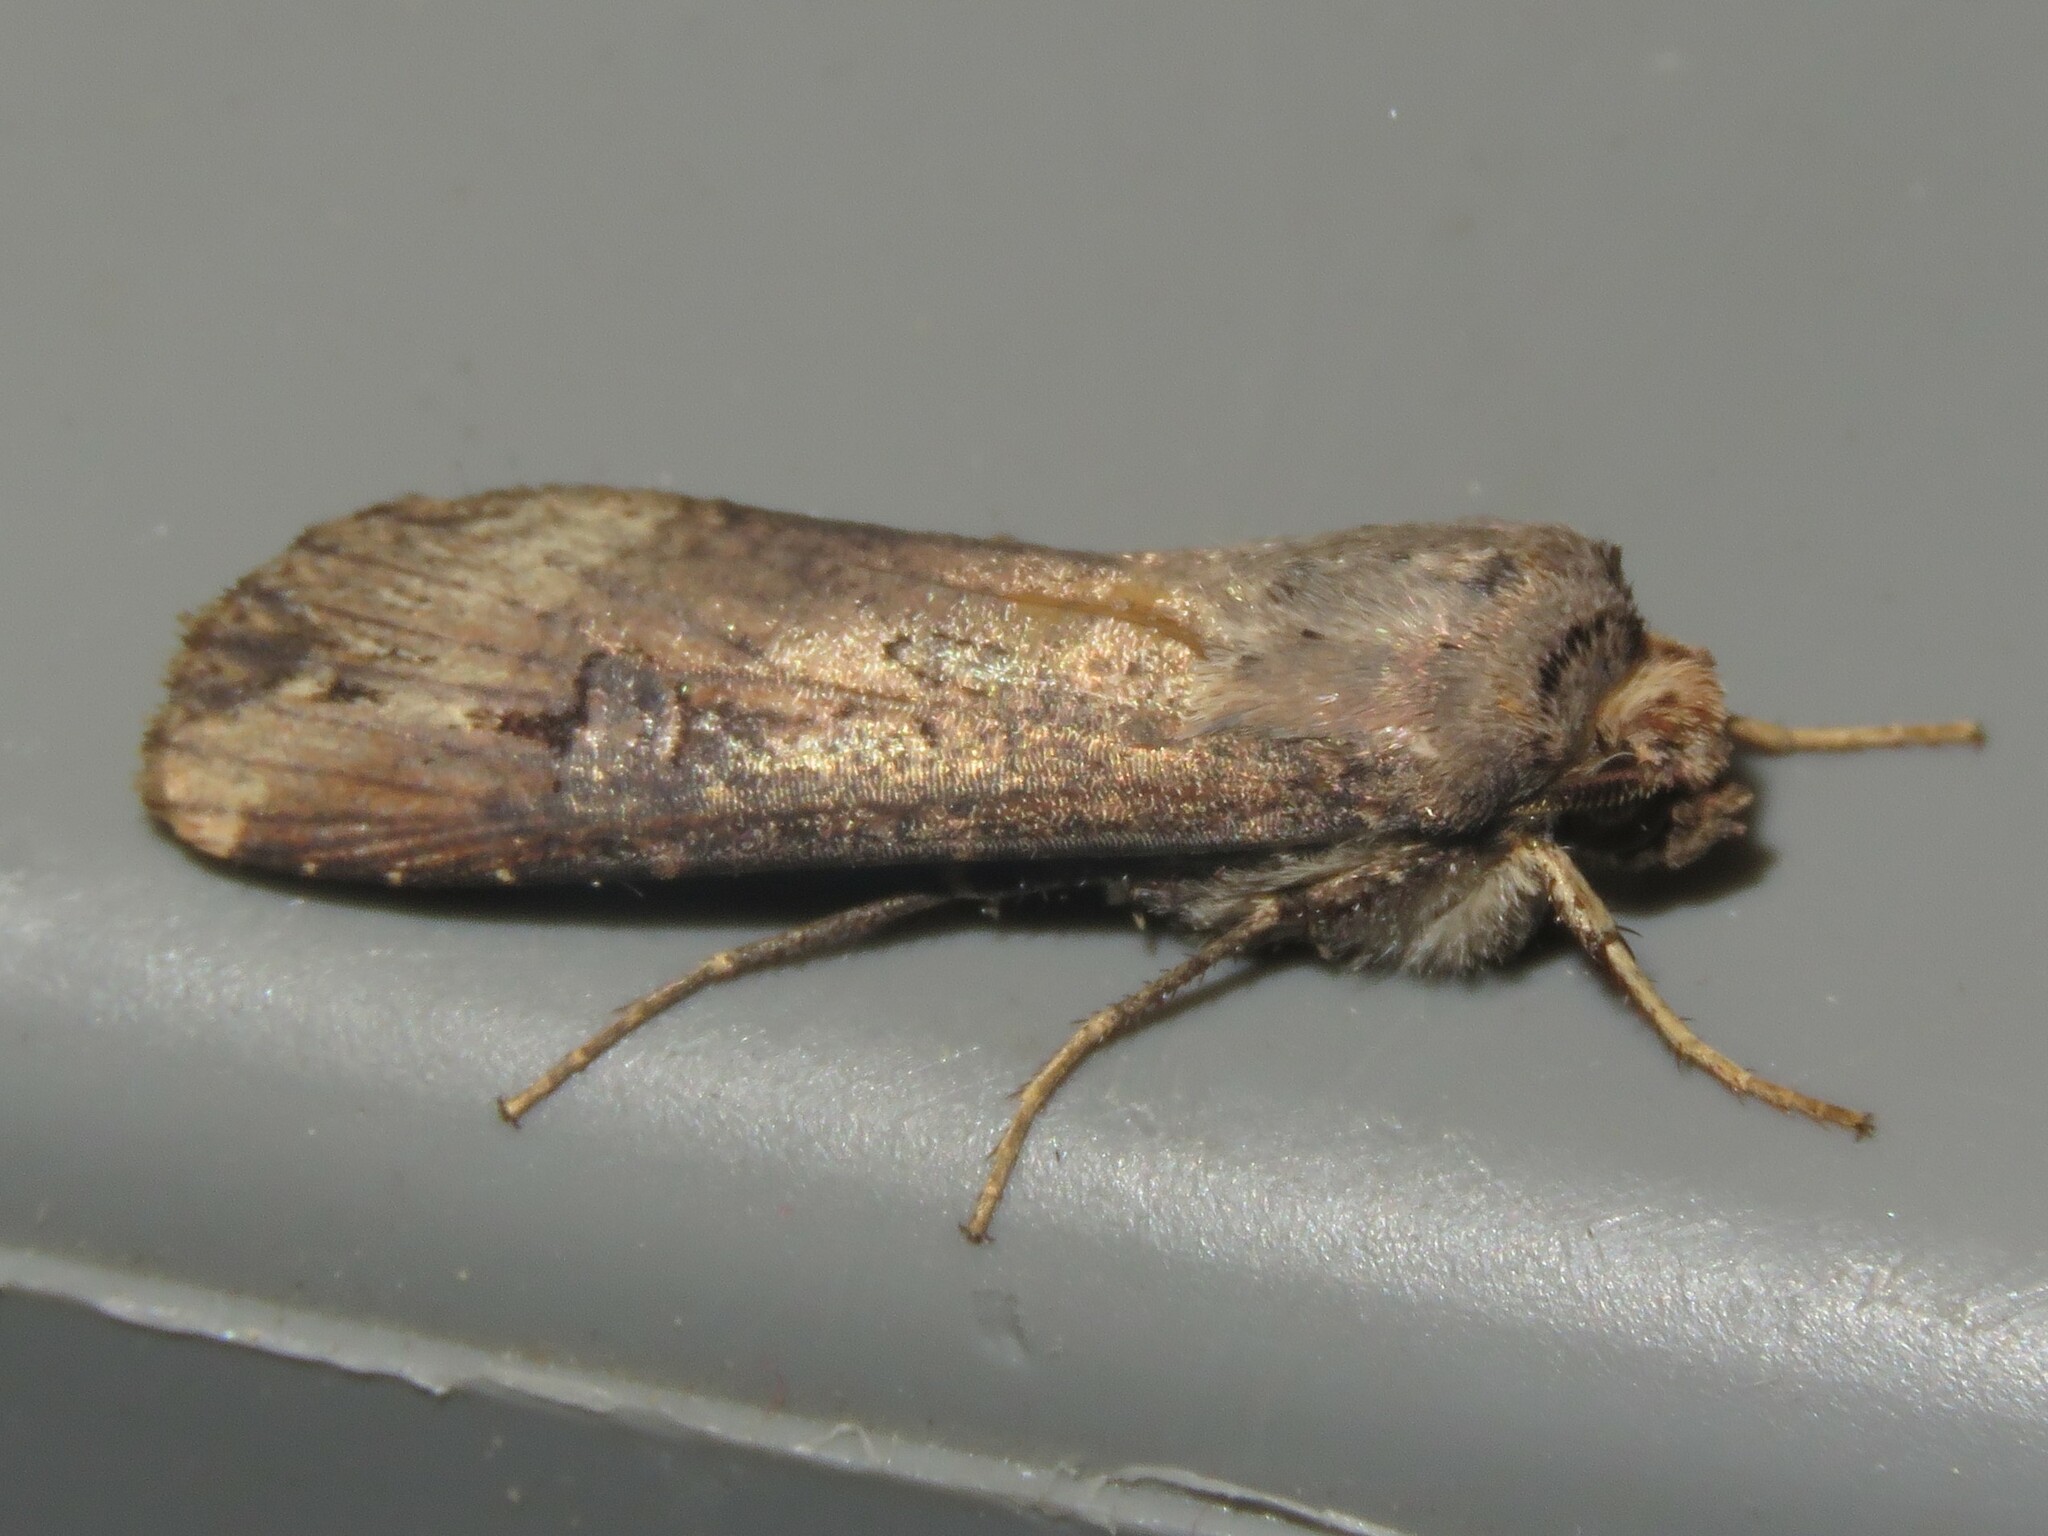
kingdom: Animalia
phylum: Arthropoda
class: Insecta
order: Lepidoptera
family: Noctuidae
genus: Agrotis
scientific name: Agrotis ipsilon
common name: Dark sword-grass
